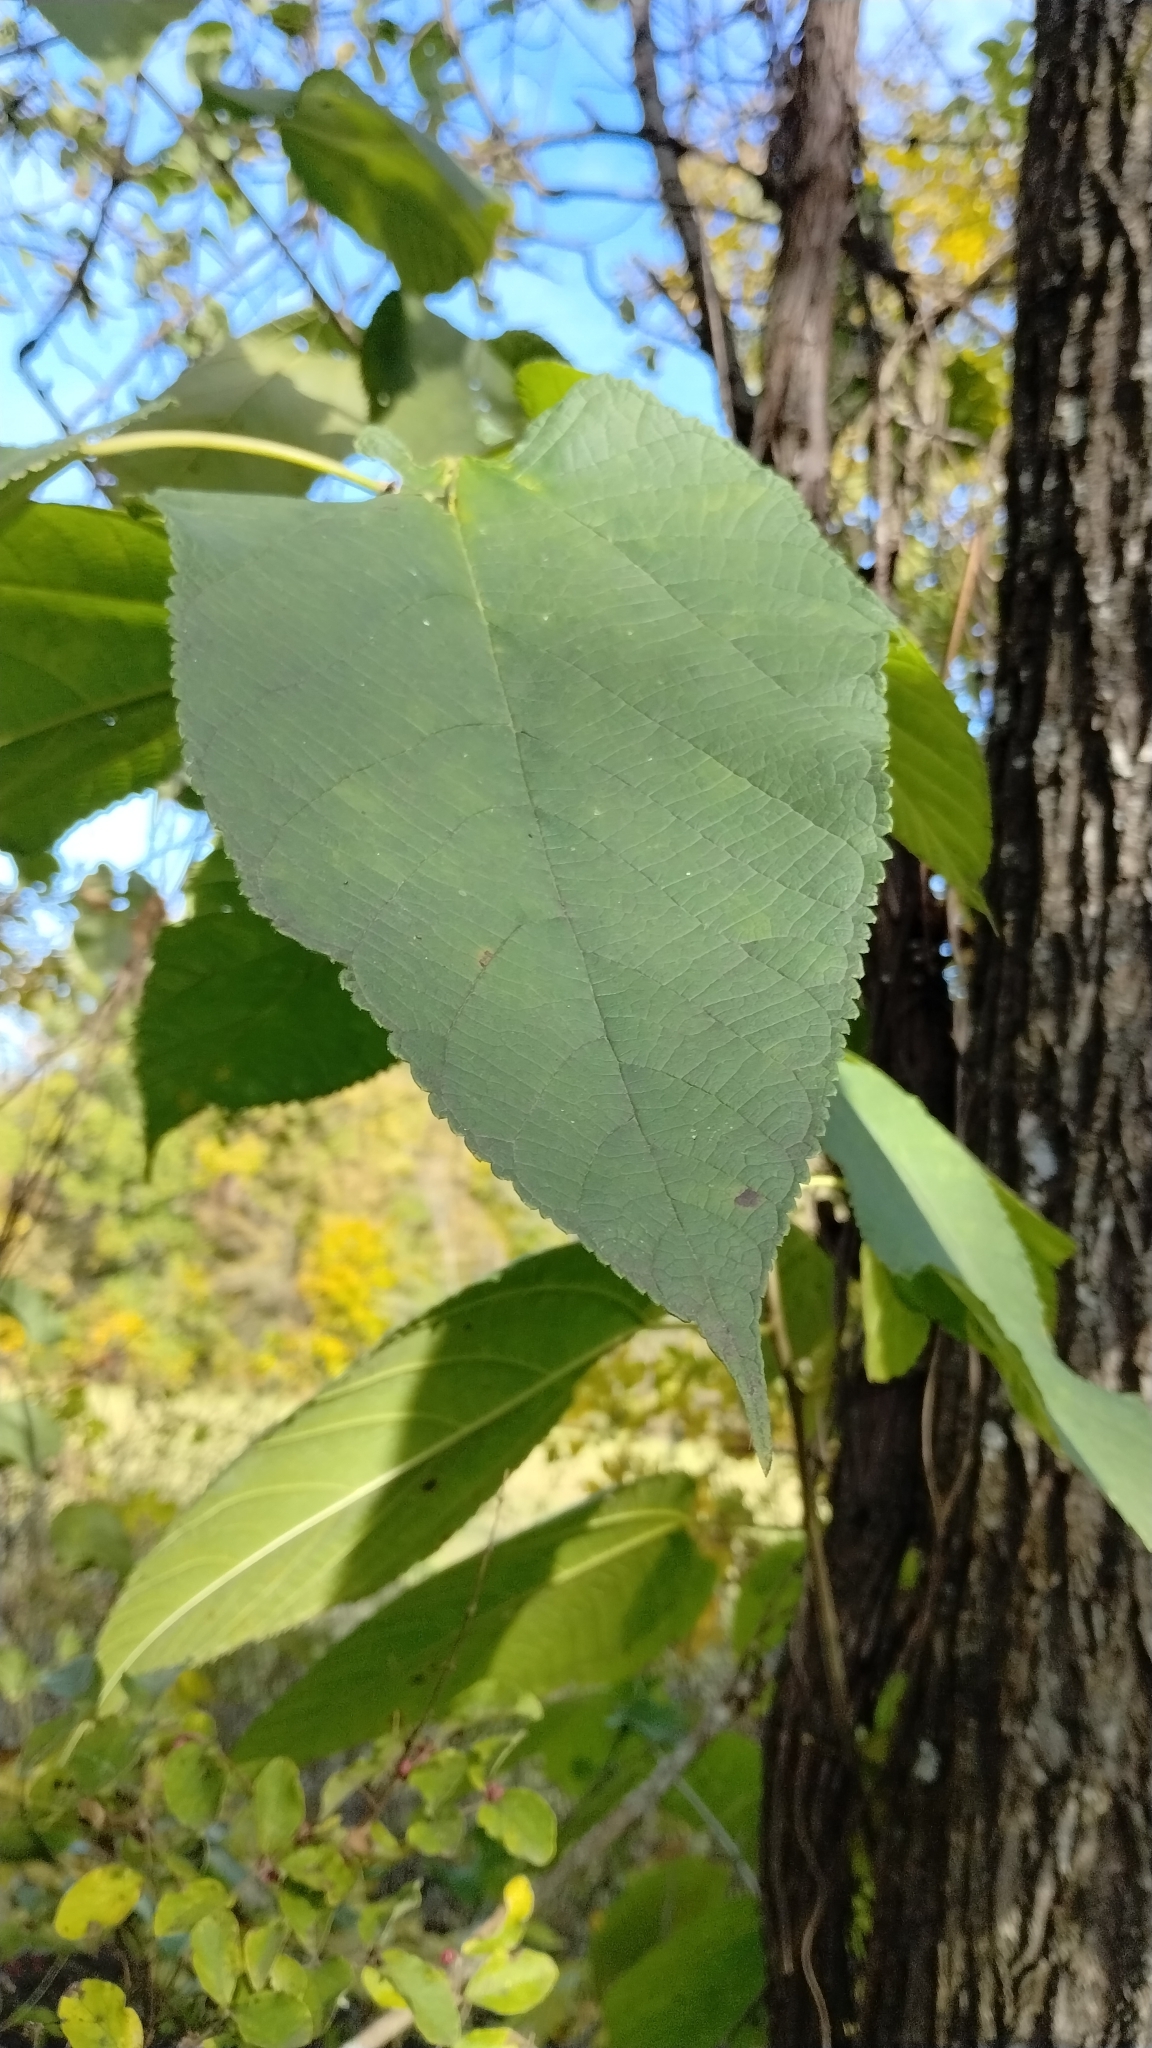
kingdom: Plantae
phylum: Tracheophyta
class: Magnoliopsida
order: Rosales
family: Moraceae
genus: Morus
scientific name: Morus rubra
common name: Red mulberry
